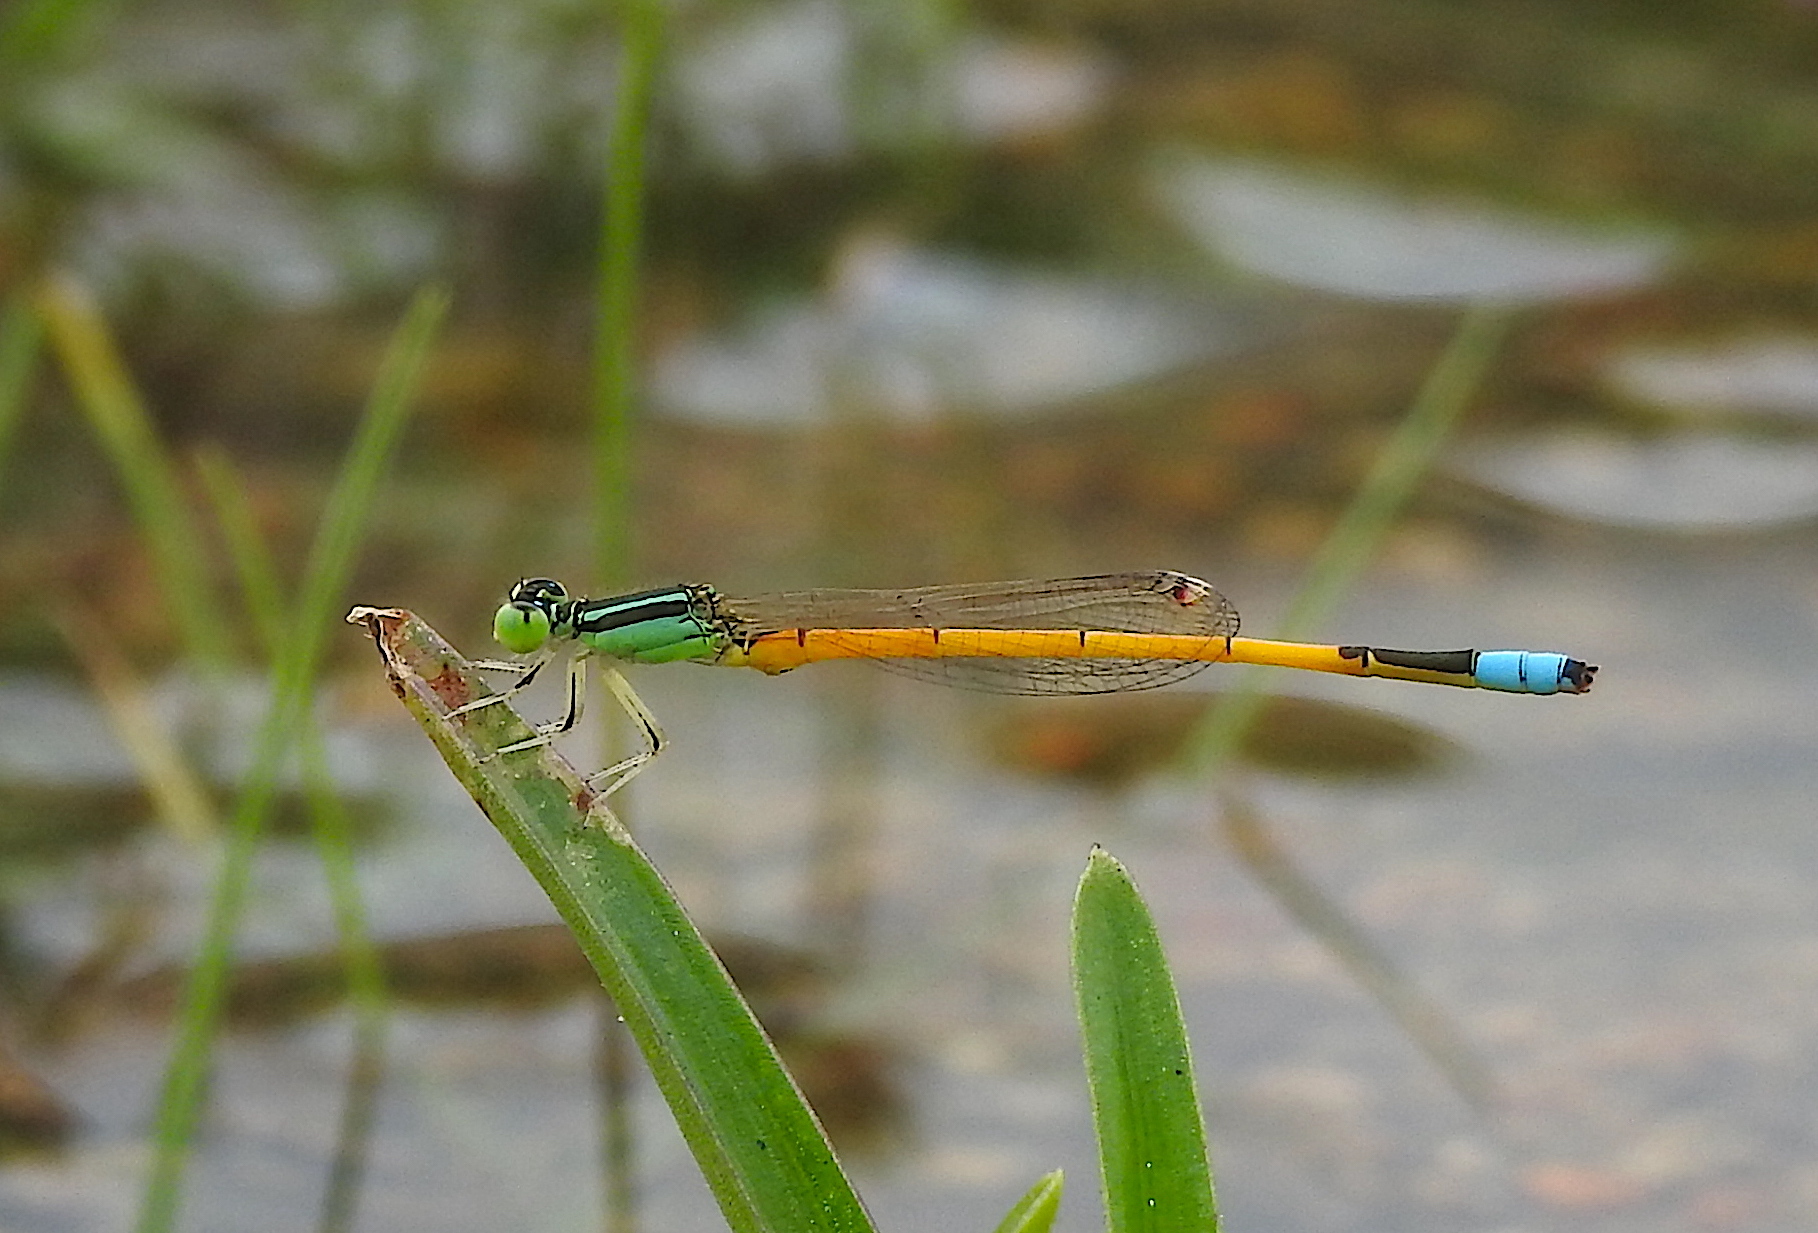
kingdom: Animalia
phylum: Arthropoda
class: Insecta
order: Odonata
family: Coenagrionidae
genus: Ischnura
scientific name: Ischnura rubilio
